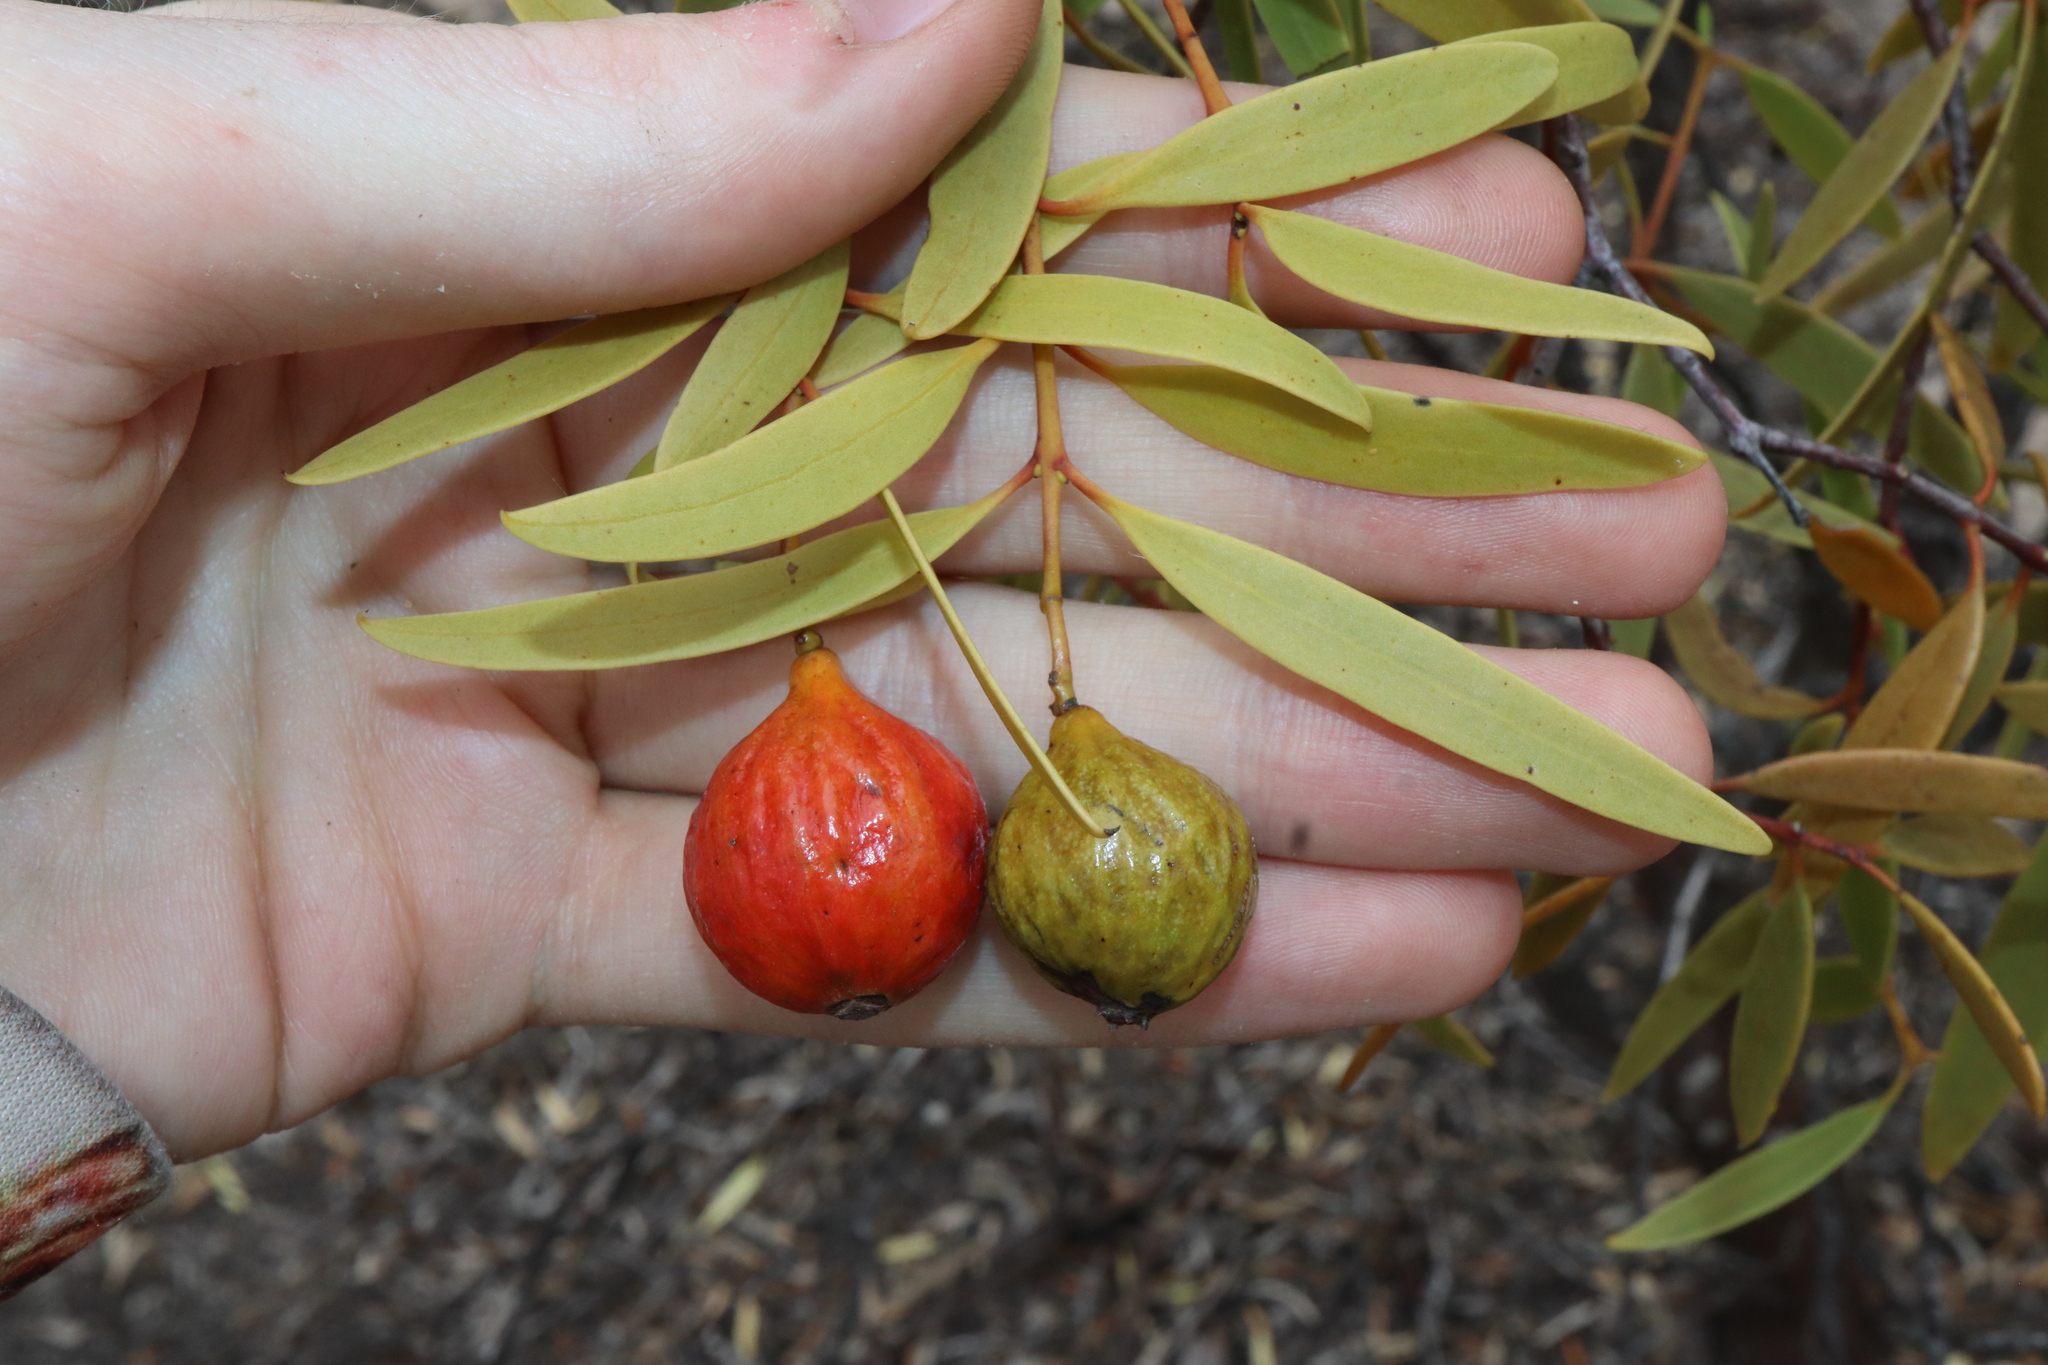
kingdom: Plantae
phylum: Tracheophyta
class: Magnoliopsida
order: Santalales
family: Santalaceae
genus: Santalum
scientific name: Santalum acuminatum
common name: Sweet quandong
